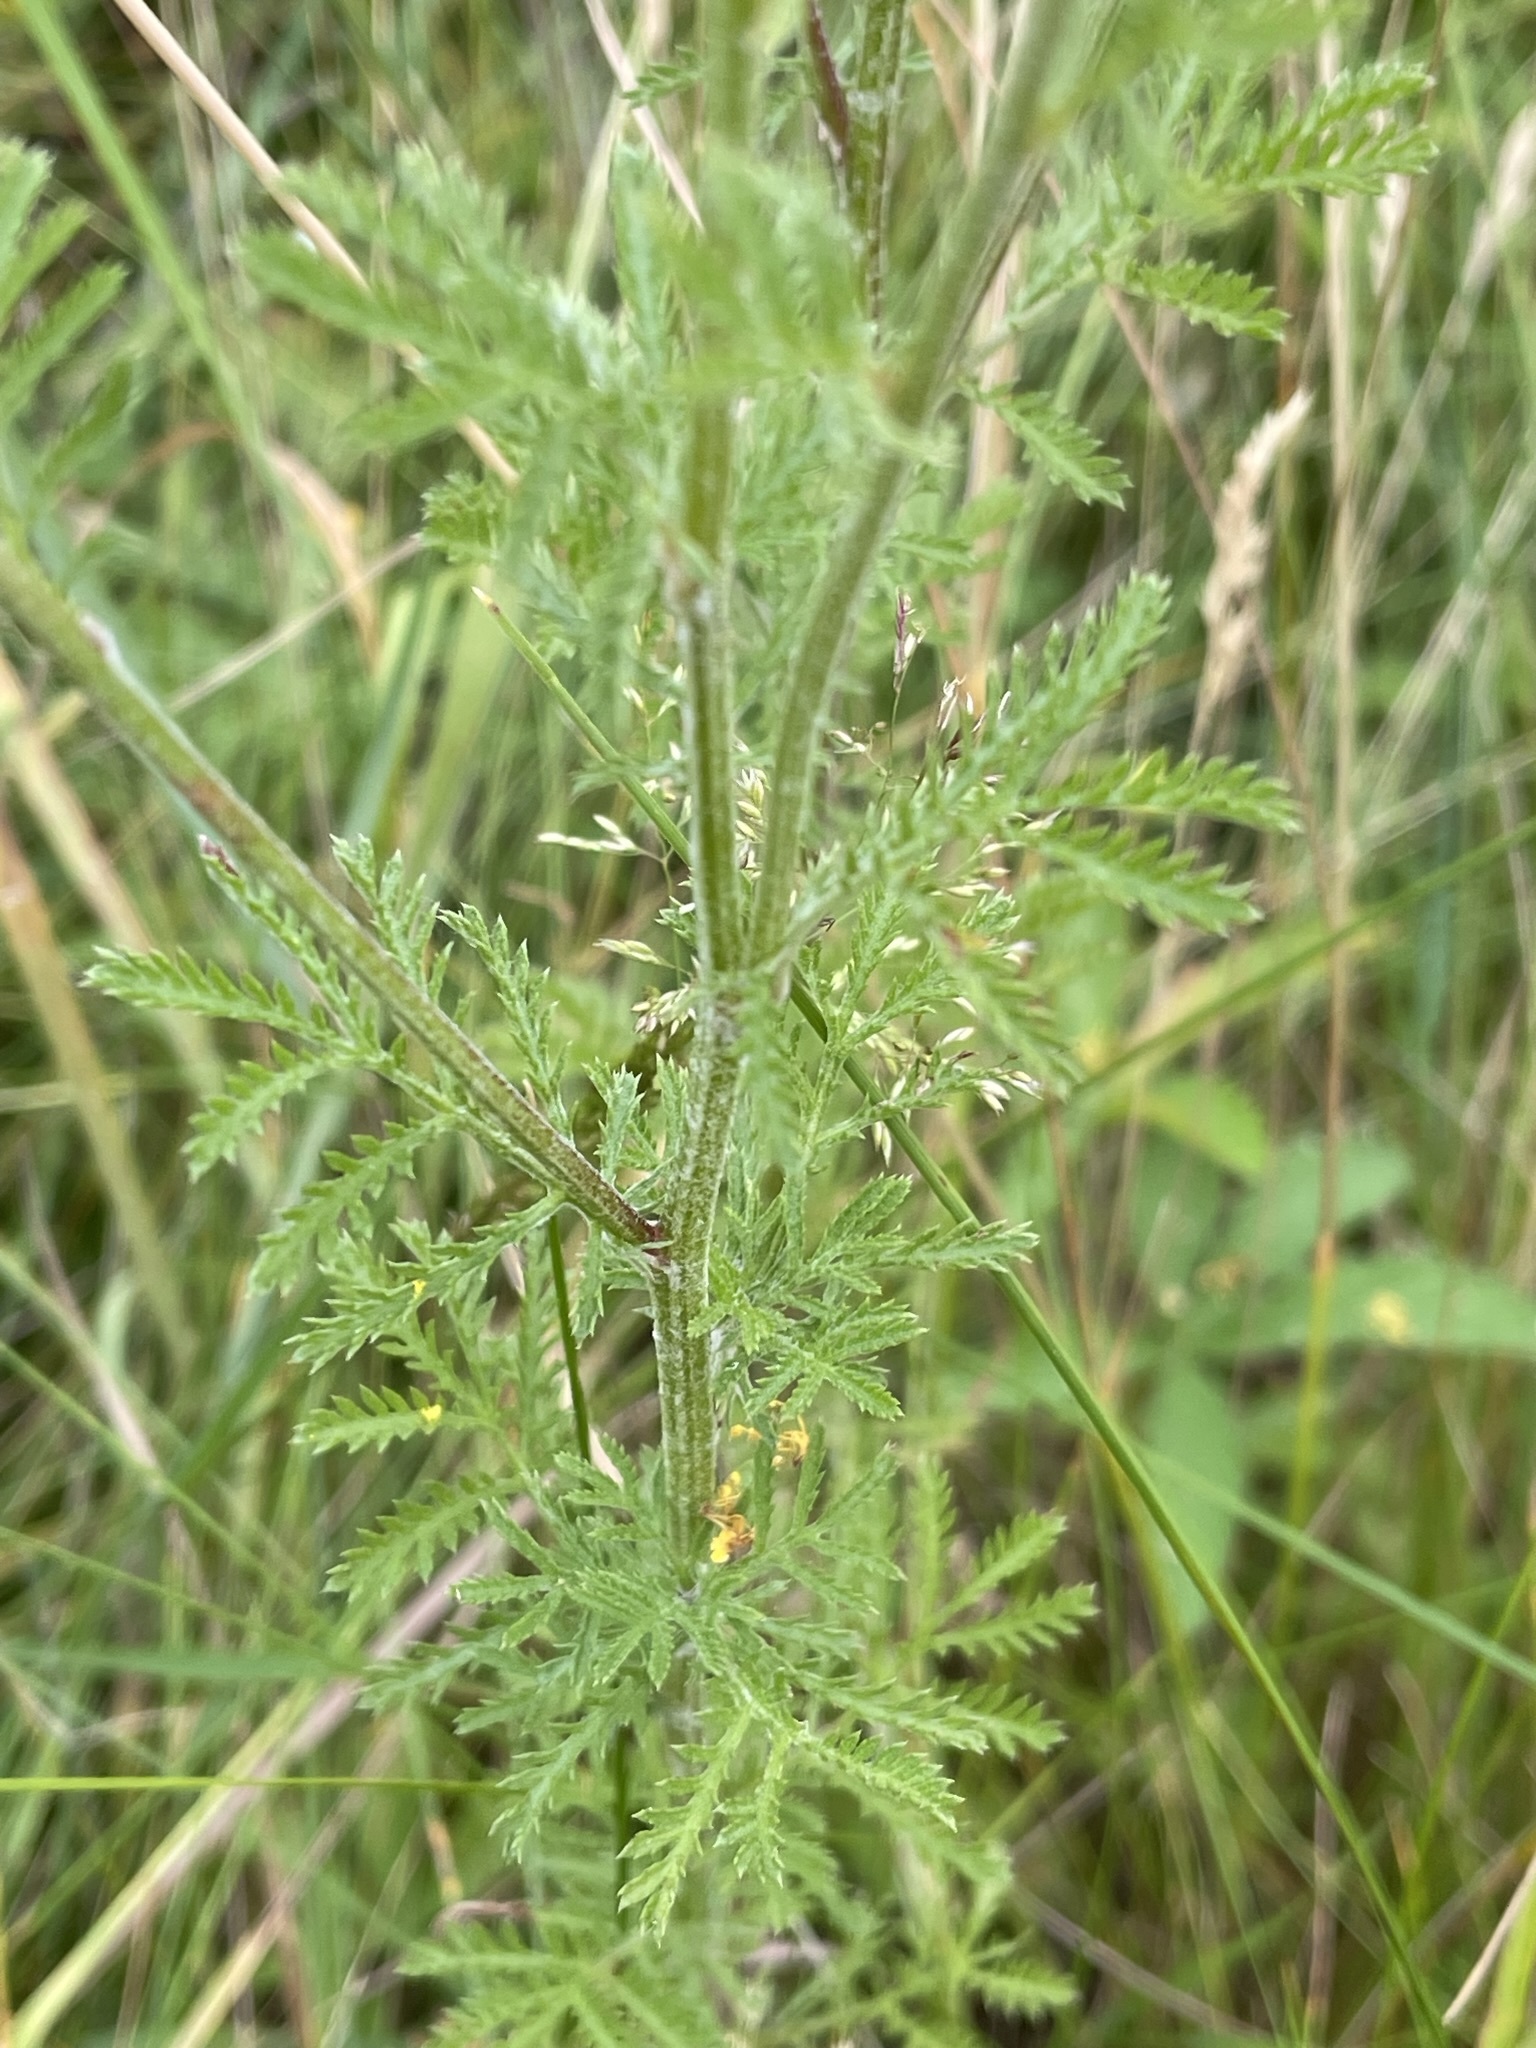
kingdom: Plantae
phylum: Tracheophyta
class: Magnoliopsida
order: Asterales
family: Asteraceae
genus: Cota
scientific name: Cota tinctoria
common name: Golden chamomile
